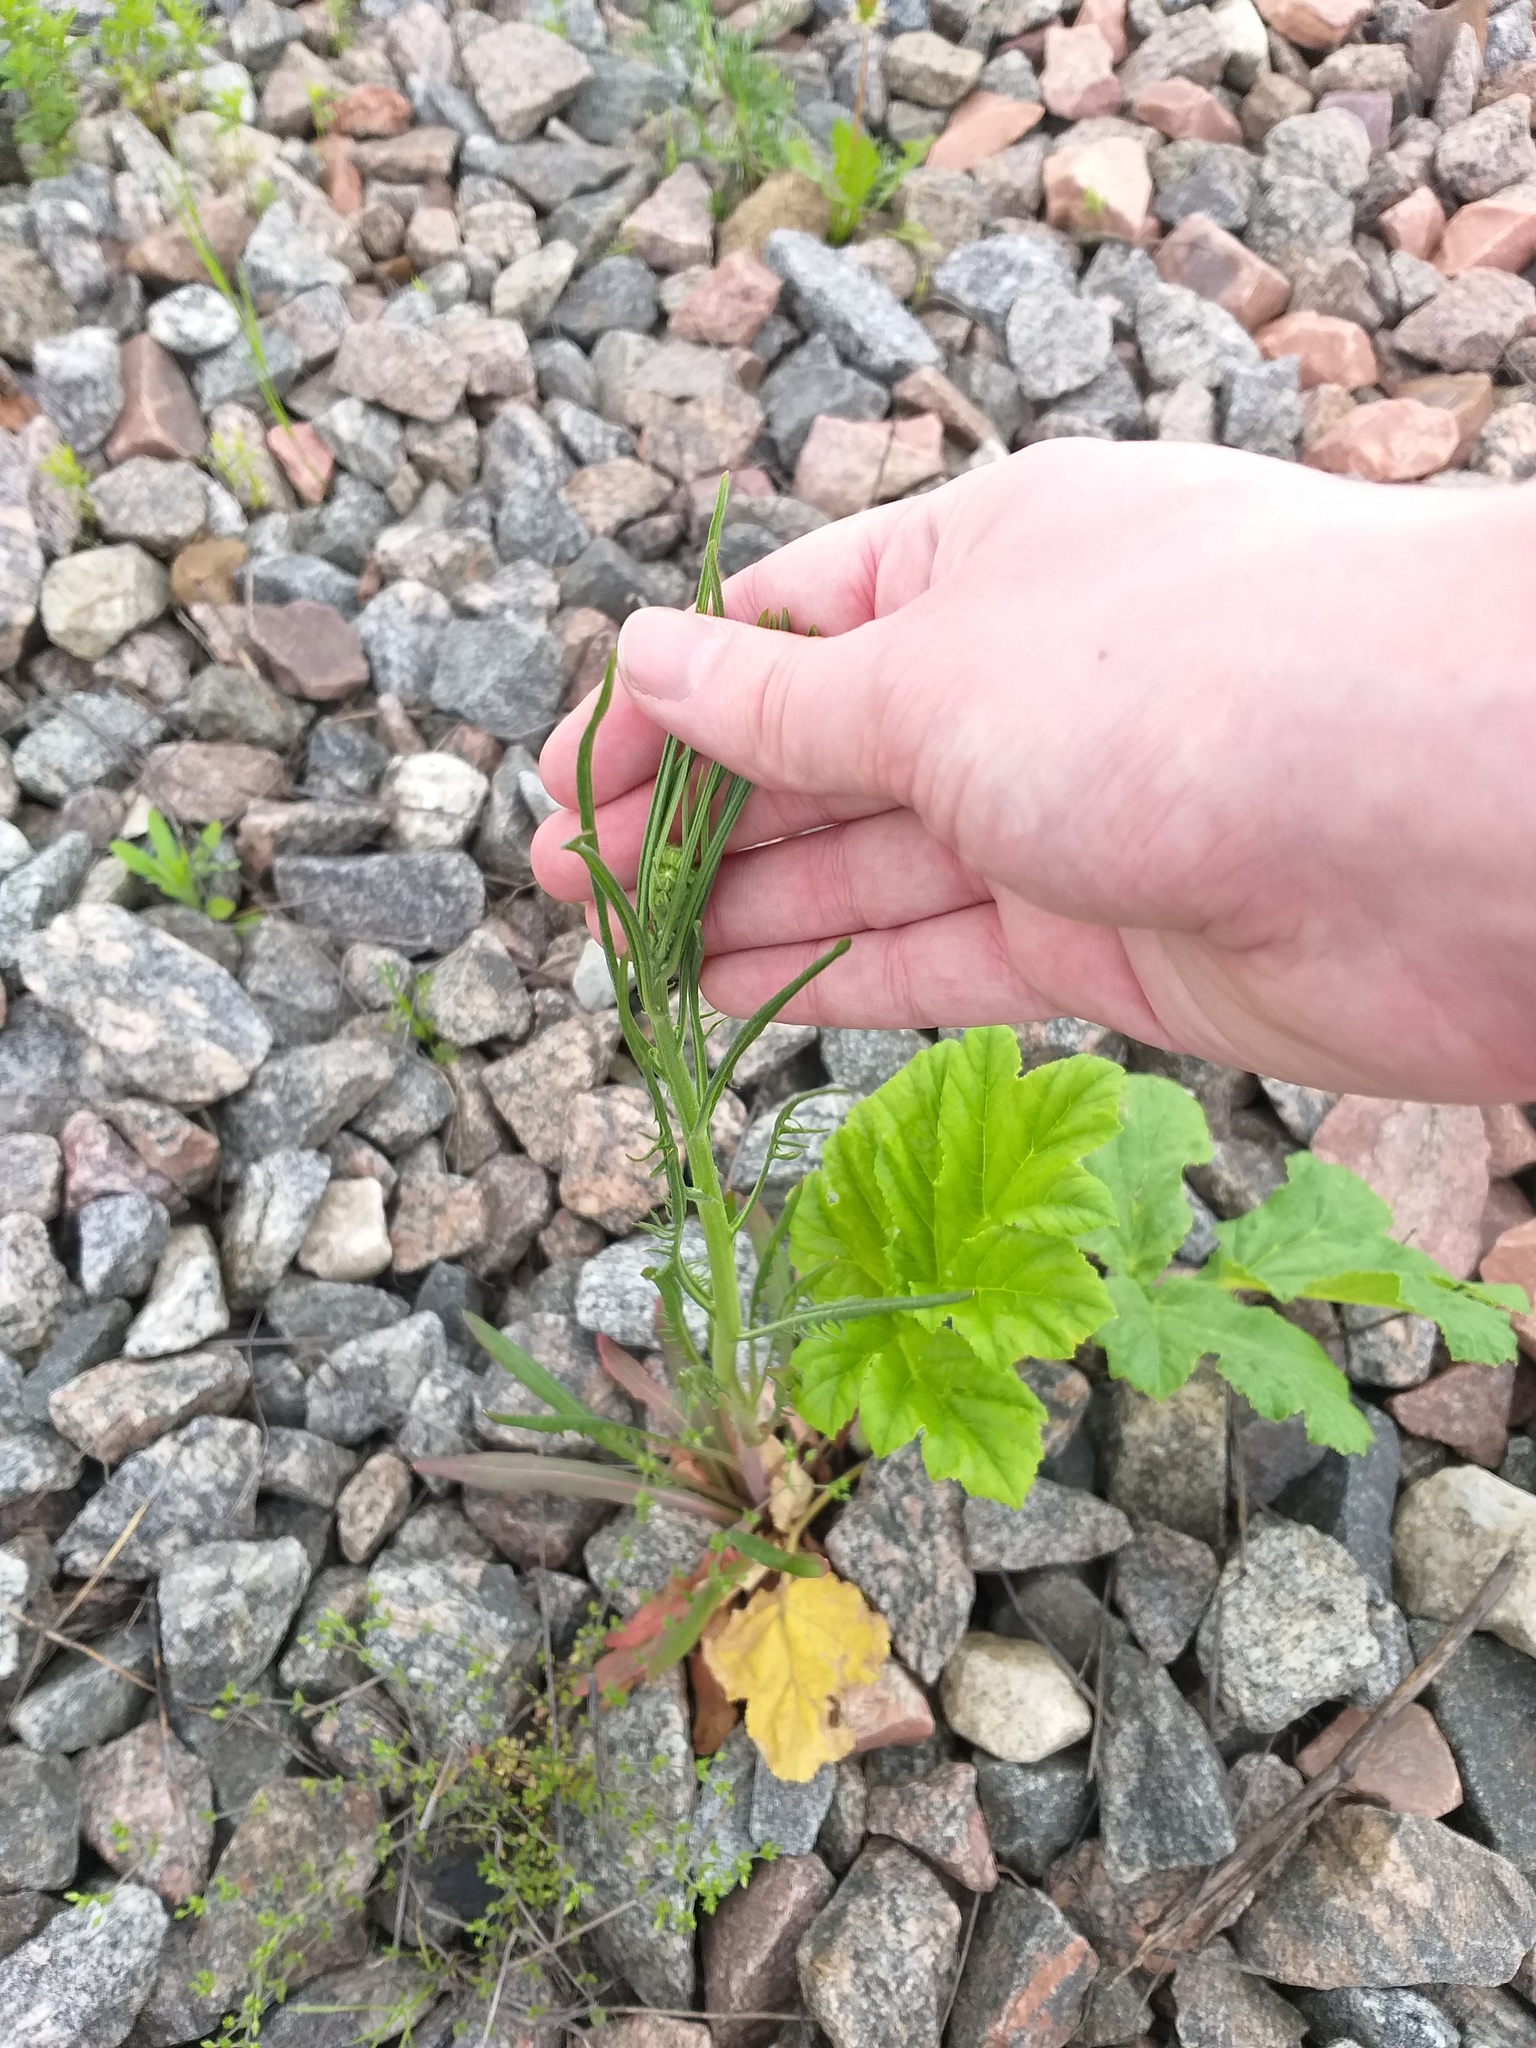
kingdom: Plantae
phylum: Tracheophyta
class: Magnoliopsida
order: Asterales
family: Asteraceae
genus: Crepis
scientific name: Crepis tectorum
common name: Narrow-leaved hawk's-beard
